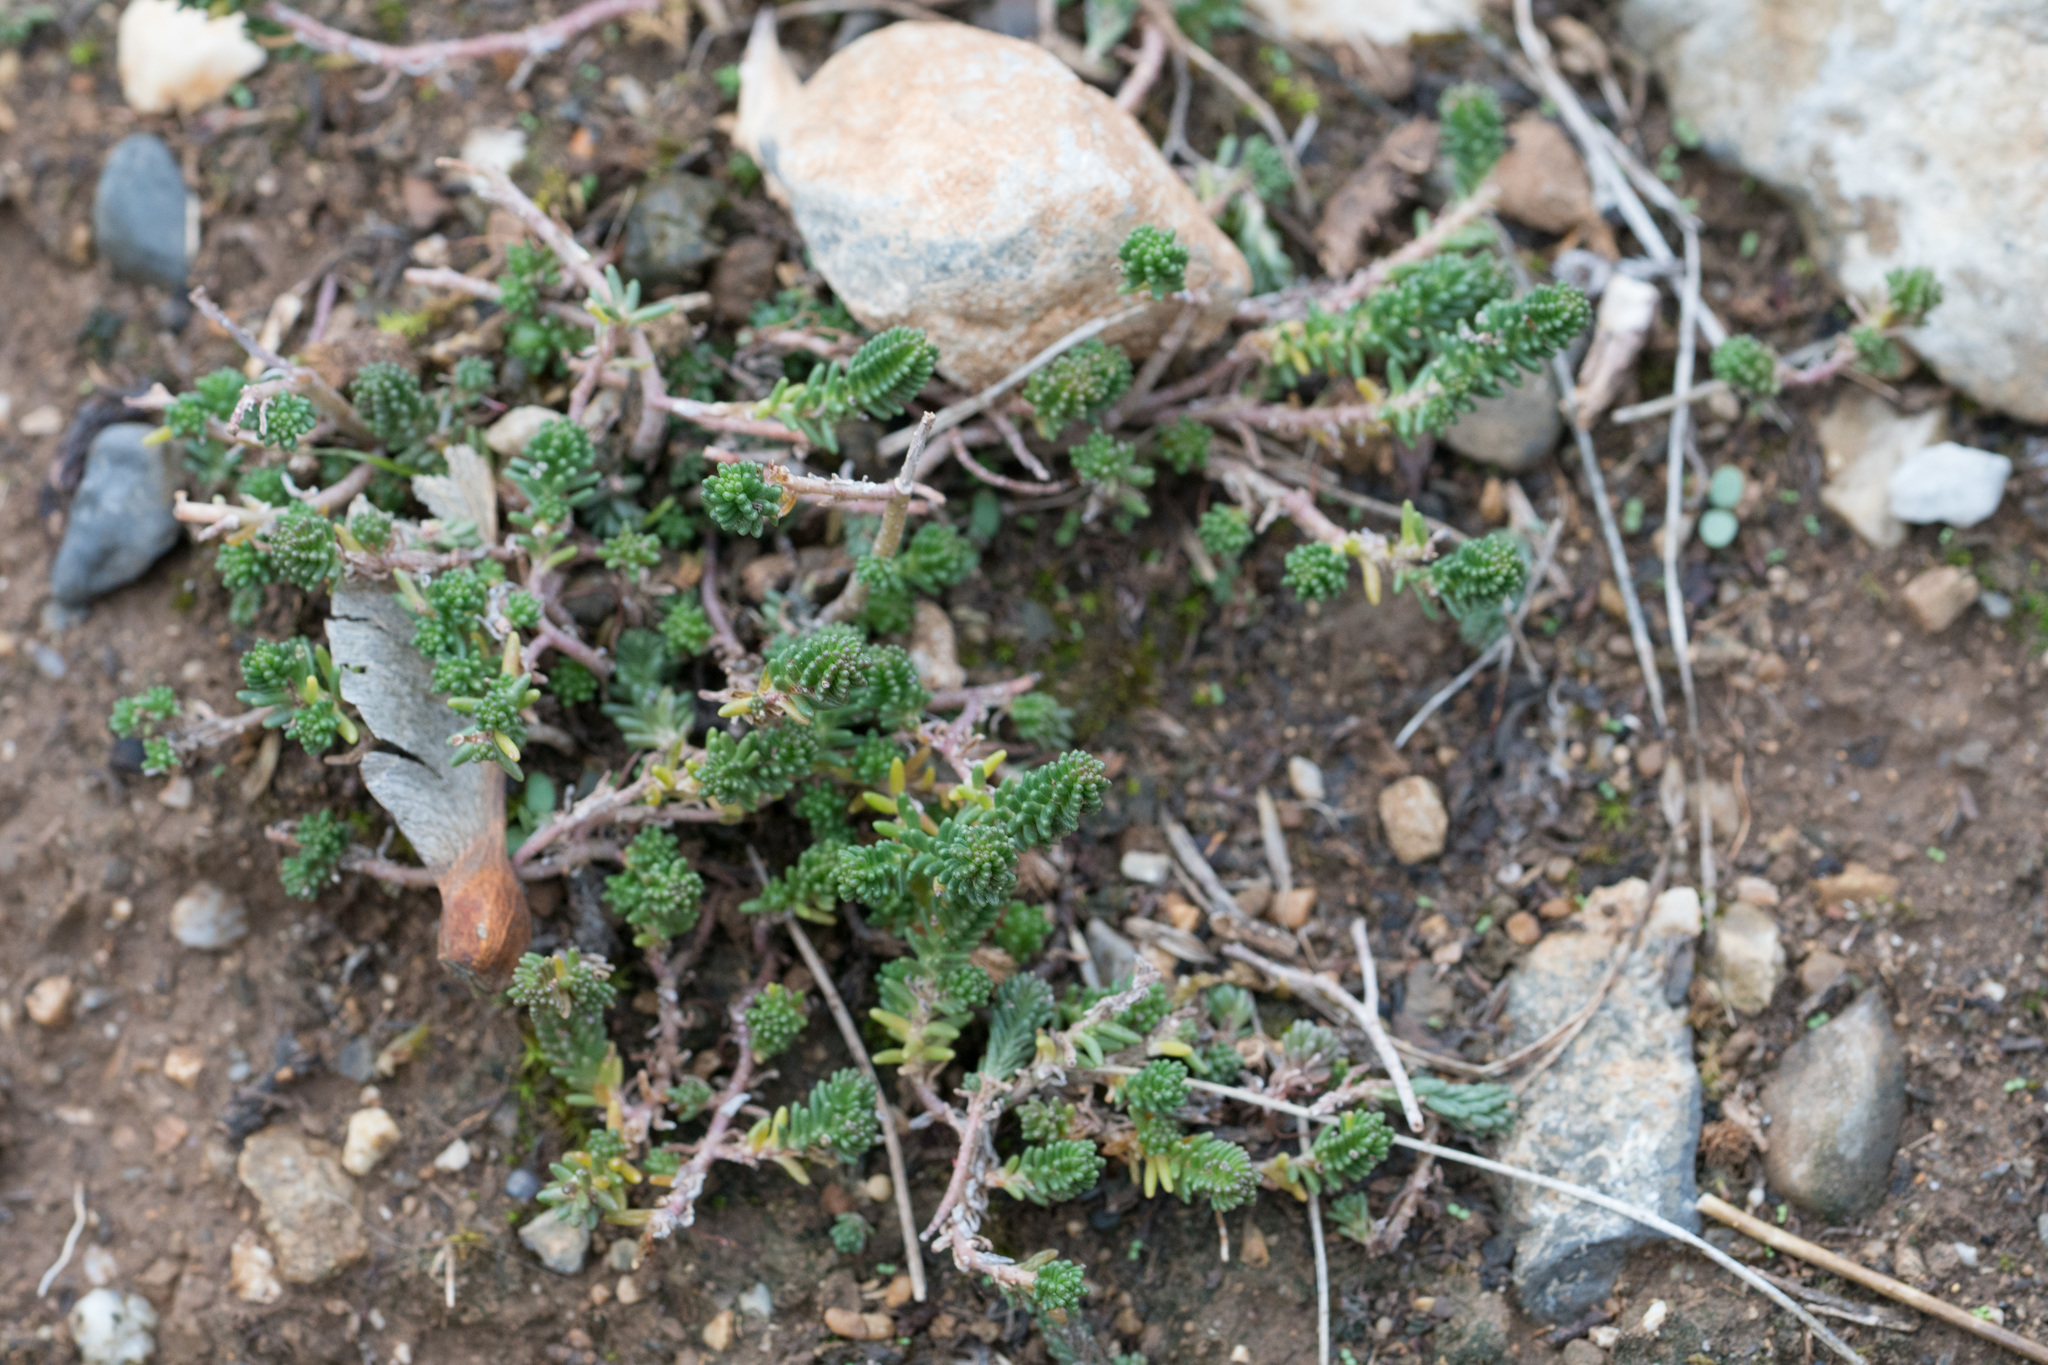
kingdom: Plantae
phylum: Tracheophyta
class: Magnoliopsida
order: Saxifragales
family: Crassulaceae
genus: Sedum
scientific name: Sedum sexangulare
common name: Tasteless stonecrop
